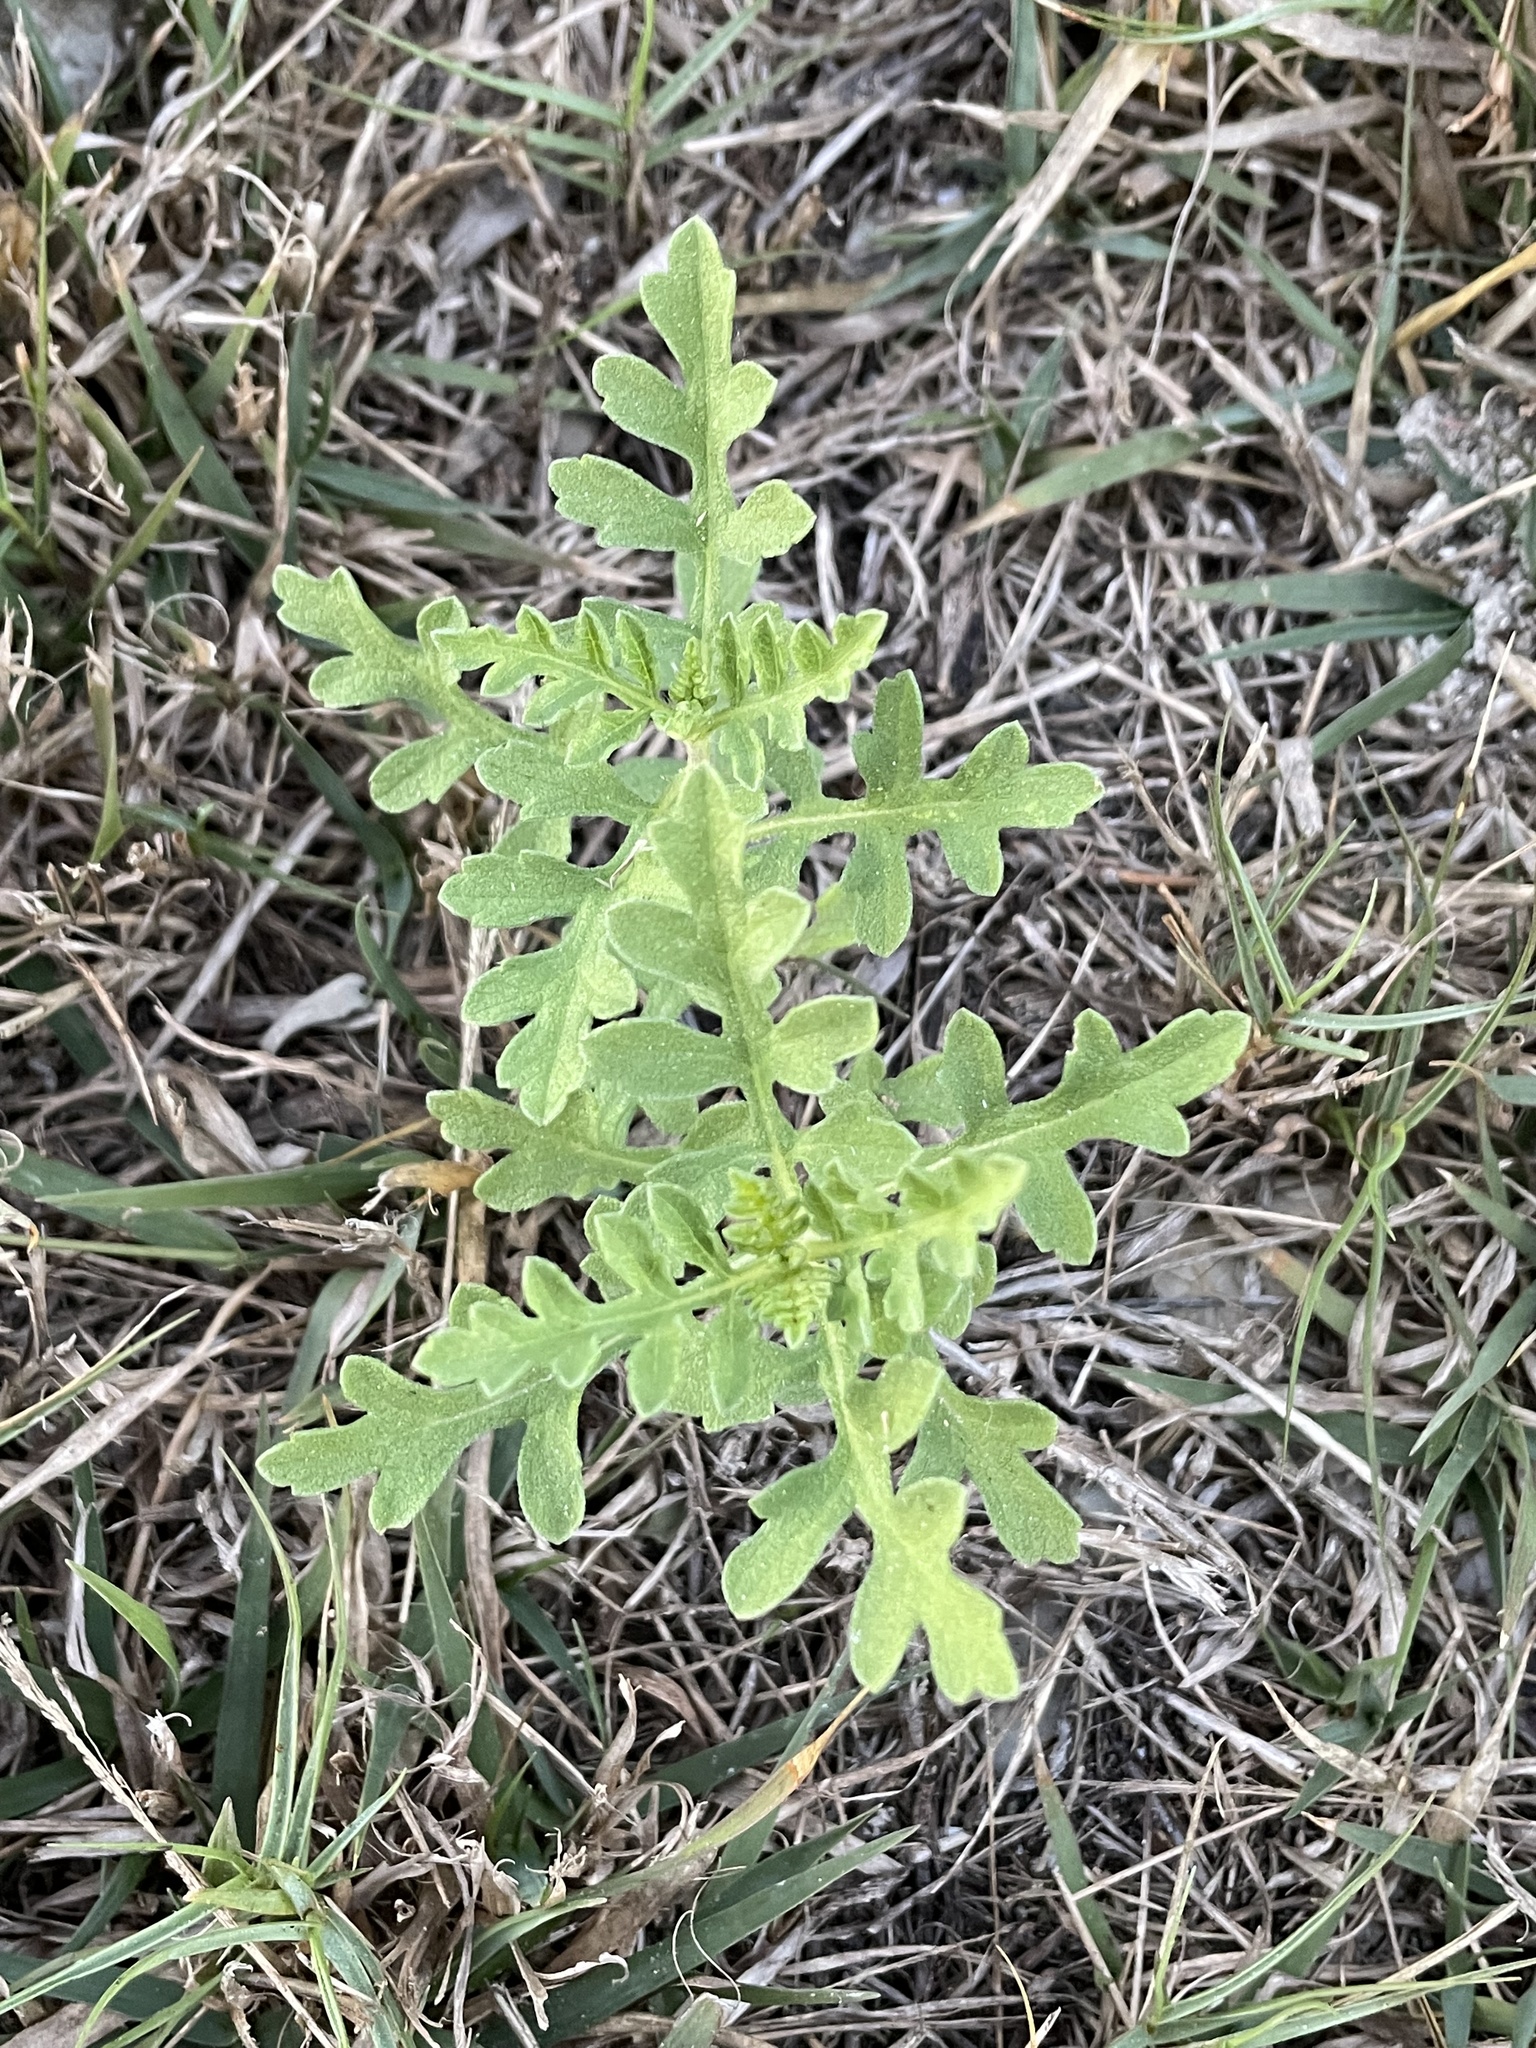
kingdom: Plantae
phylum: Tracheophyta
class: Magnoliopsida
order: Asterales
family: Asteraceae
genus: Ambrosia
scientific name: Ambrosia psilostachya
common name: Perennial ragweed
